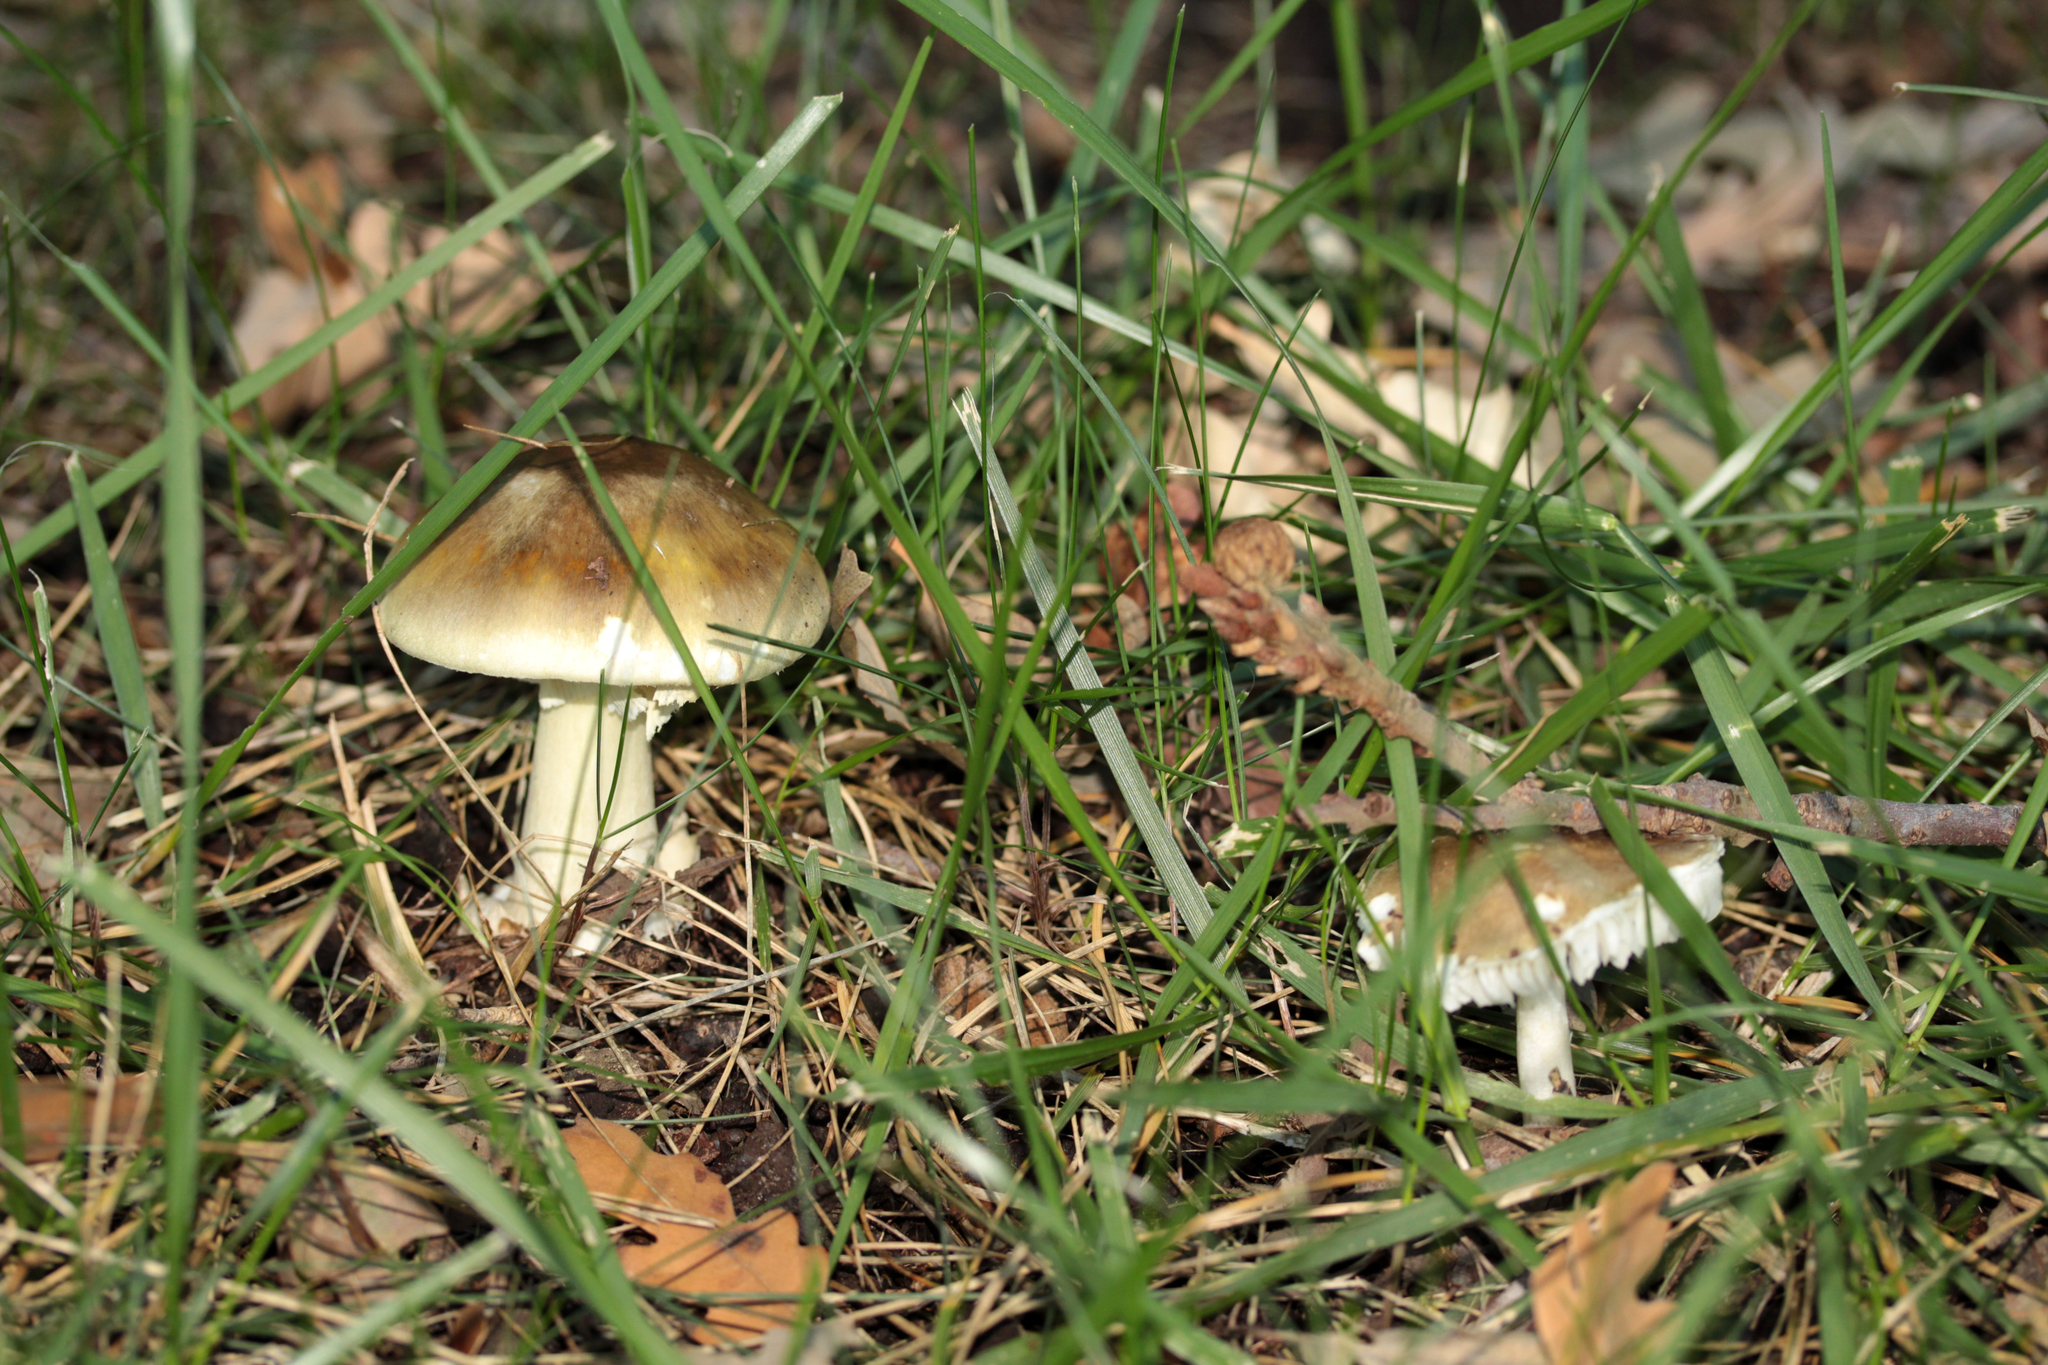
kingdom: Fungi
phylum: Basidiomycota
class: Agaricomycetes
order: Agaricales
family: Amanitaceae
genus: Amanita
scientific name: Amanita phalloides
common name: Death cap
